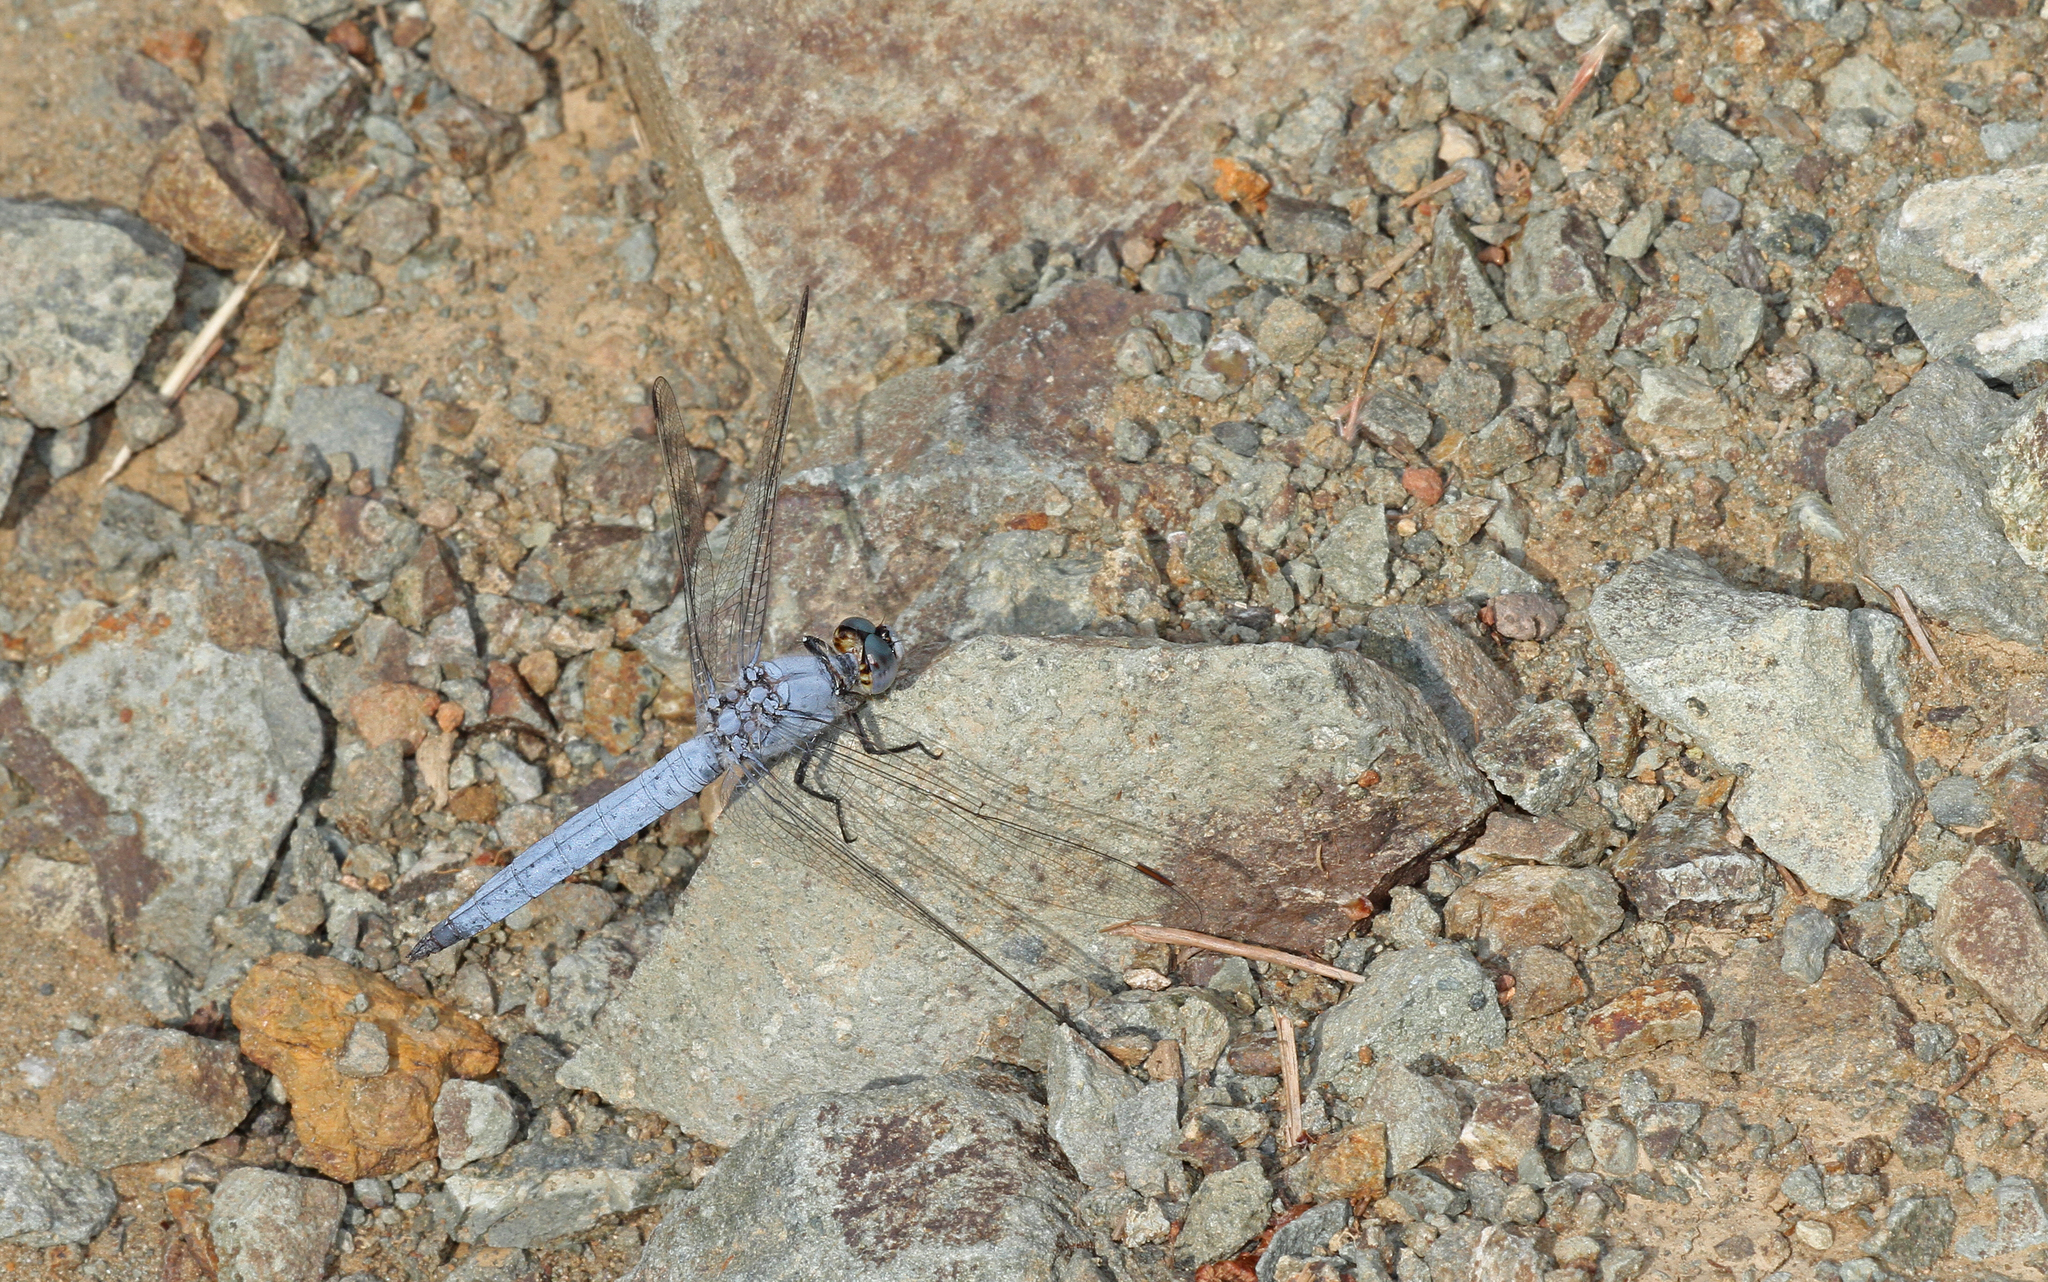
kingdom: Animalia
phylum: Arthropoda
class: Insecta
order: Odonata
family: Libellulidae
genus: Orthetrum
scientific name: Orthetrum brunneum
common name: Southern skimmer
